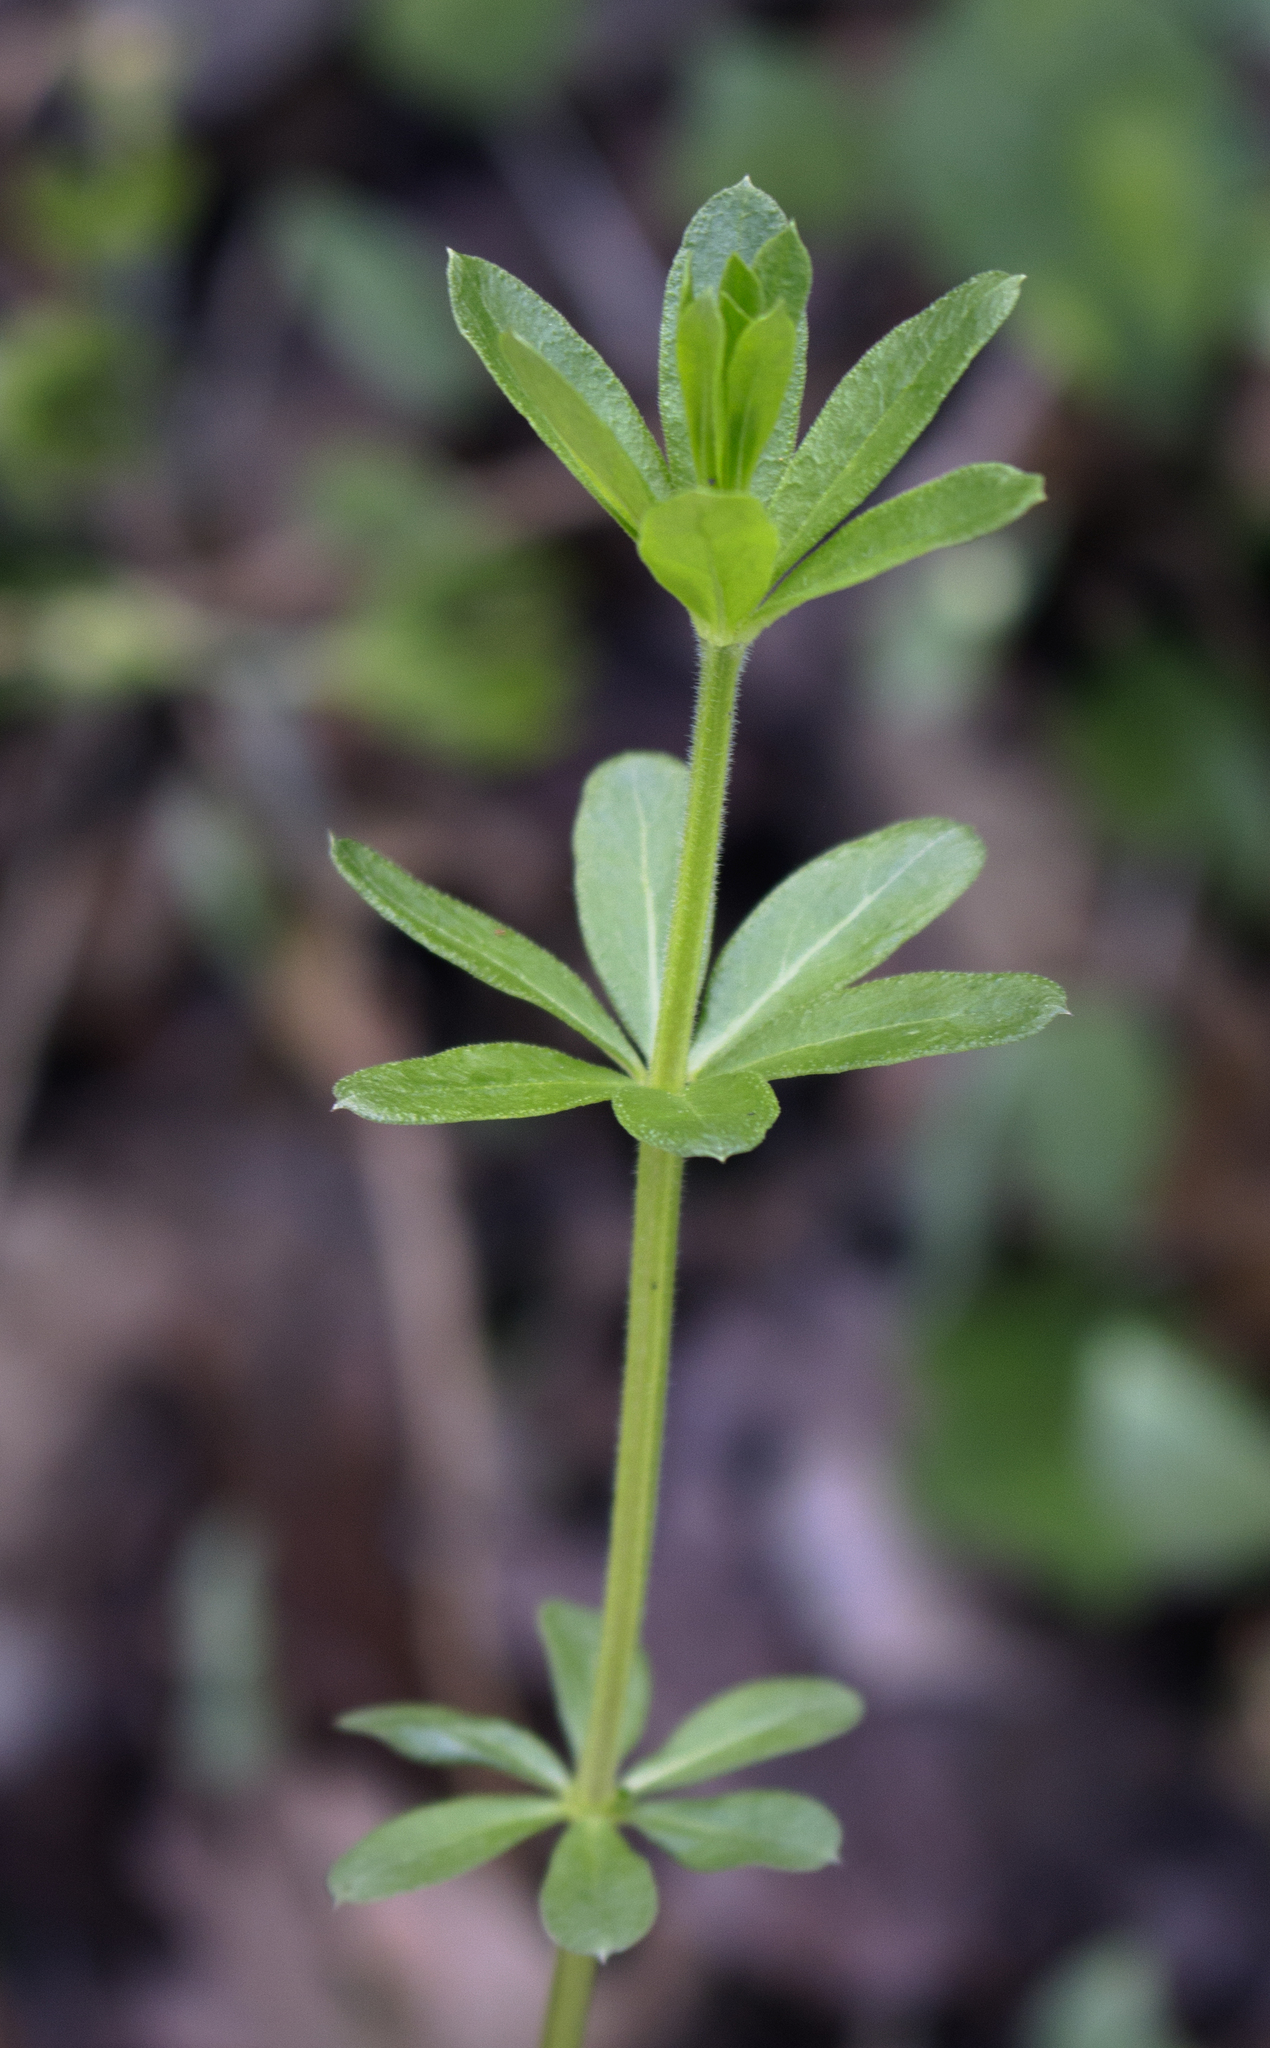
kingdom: Plantae
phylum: Tracheophyta
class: Magnoliopsida
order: Gentianales
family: Rubiaceae
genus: Galium
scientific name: Galium triflorum
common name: Fragrant bedstraw
